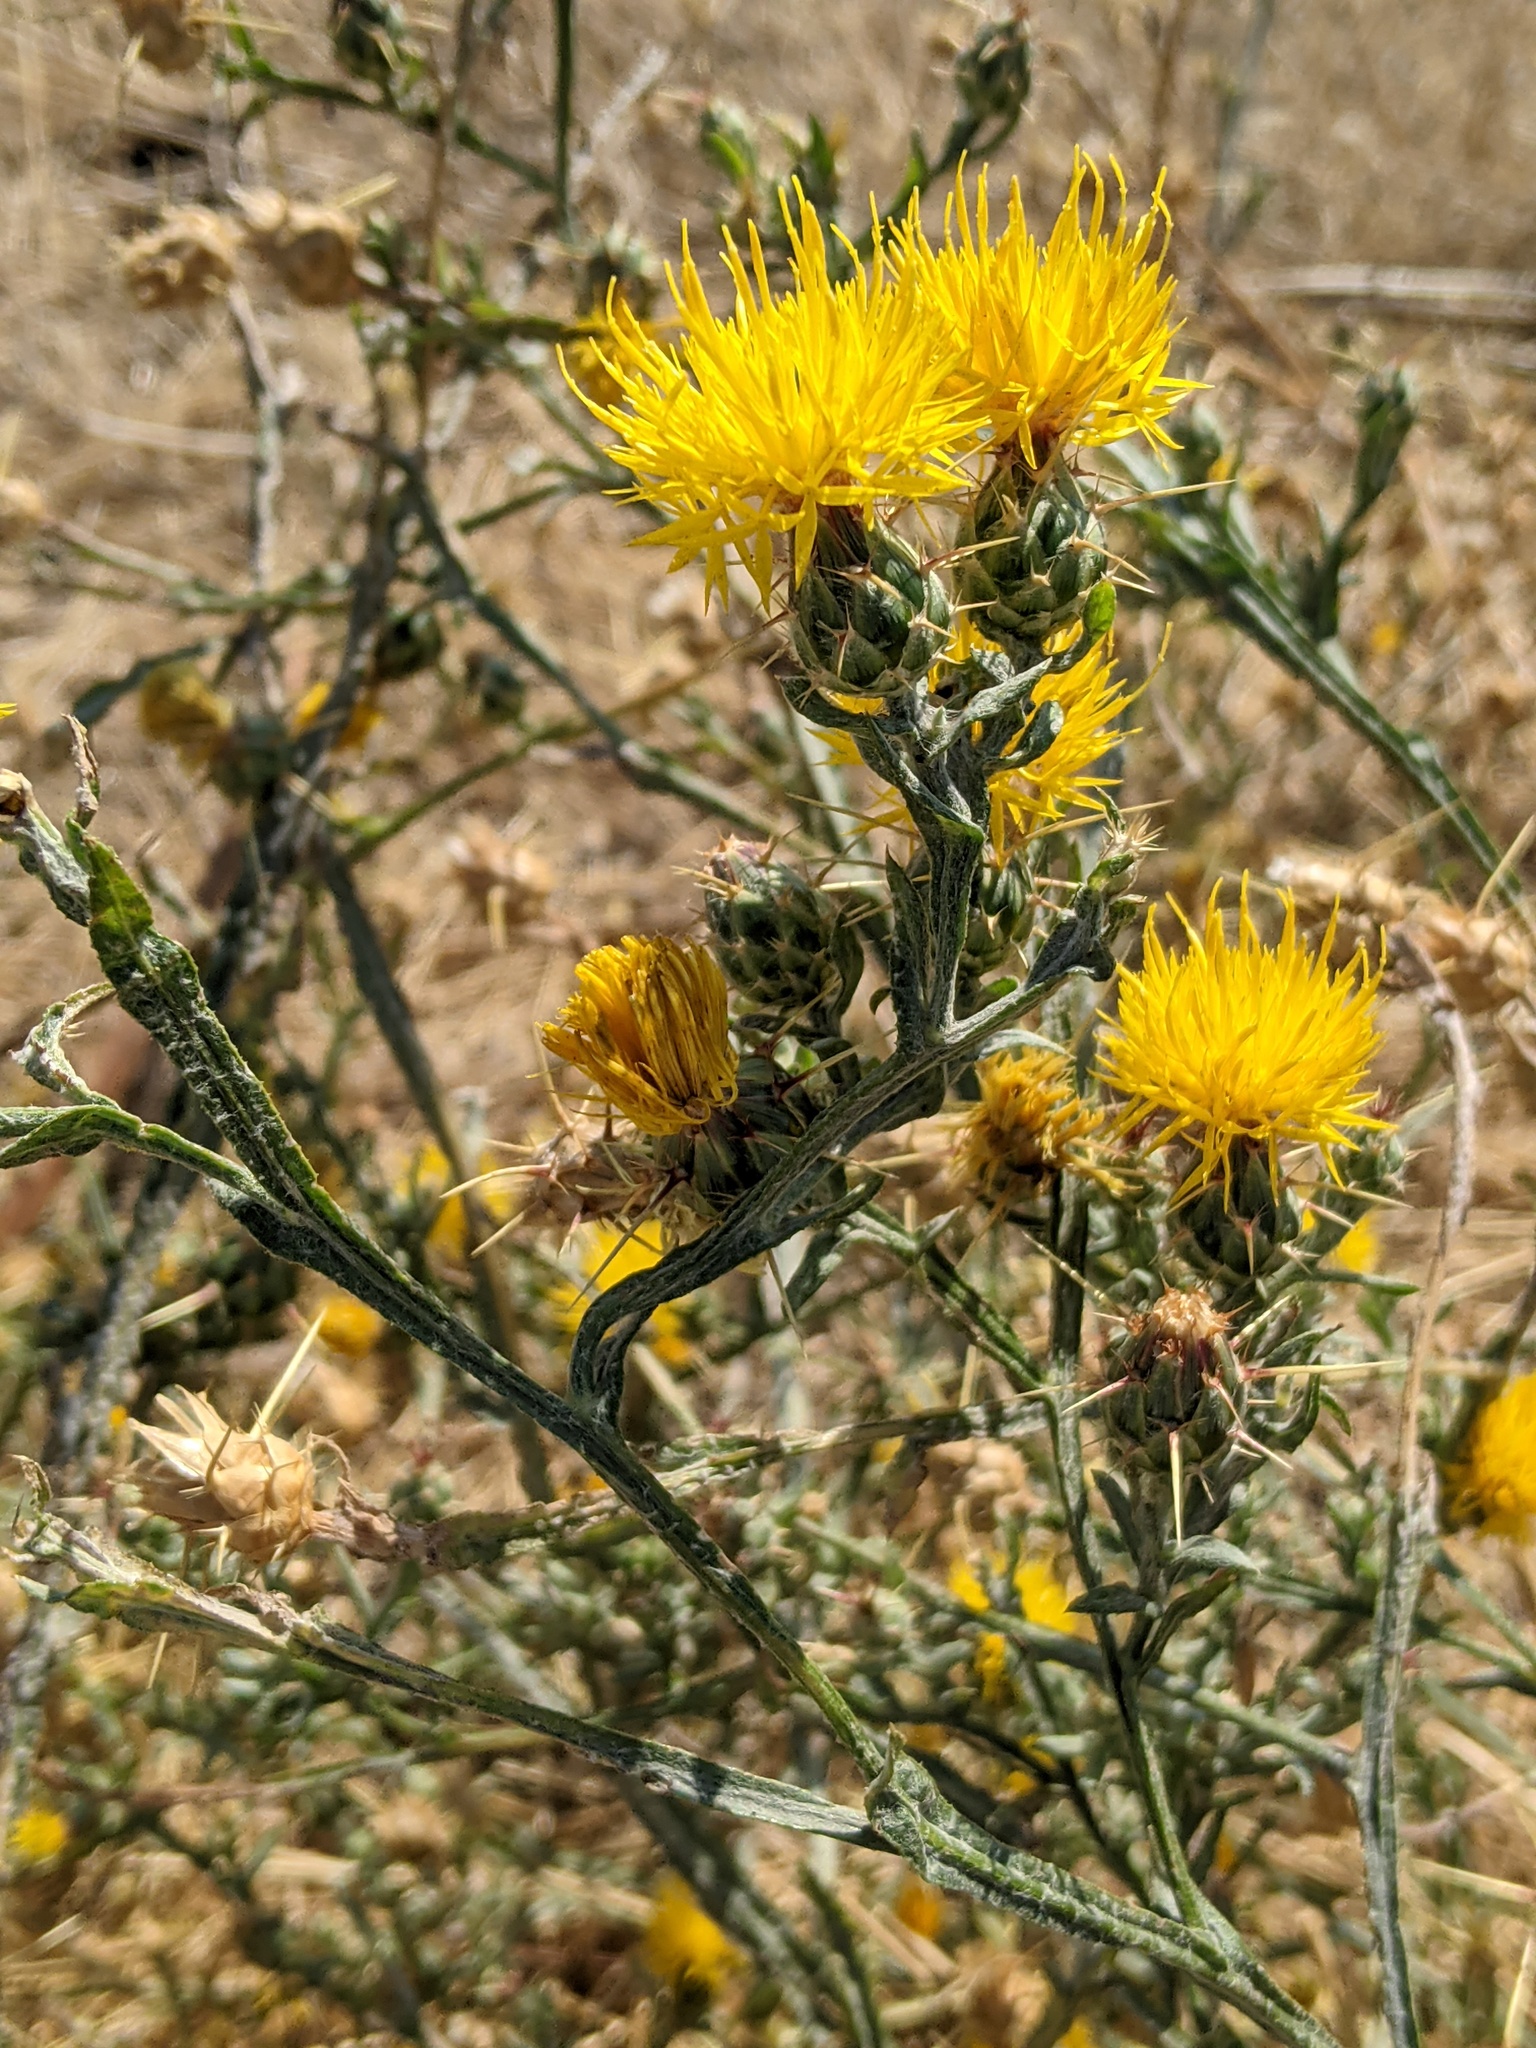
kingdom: Plantae
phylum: Tracheophyta
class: Magnoliopsida
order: Asterales
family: Asteraceae
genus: Centaurea
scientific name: Centaurea solstitialis
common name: Yellow star-thistle
